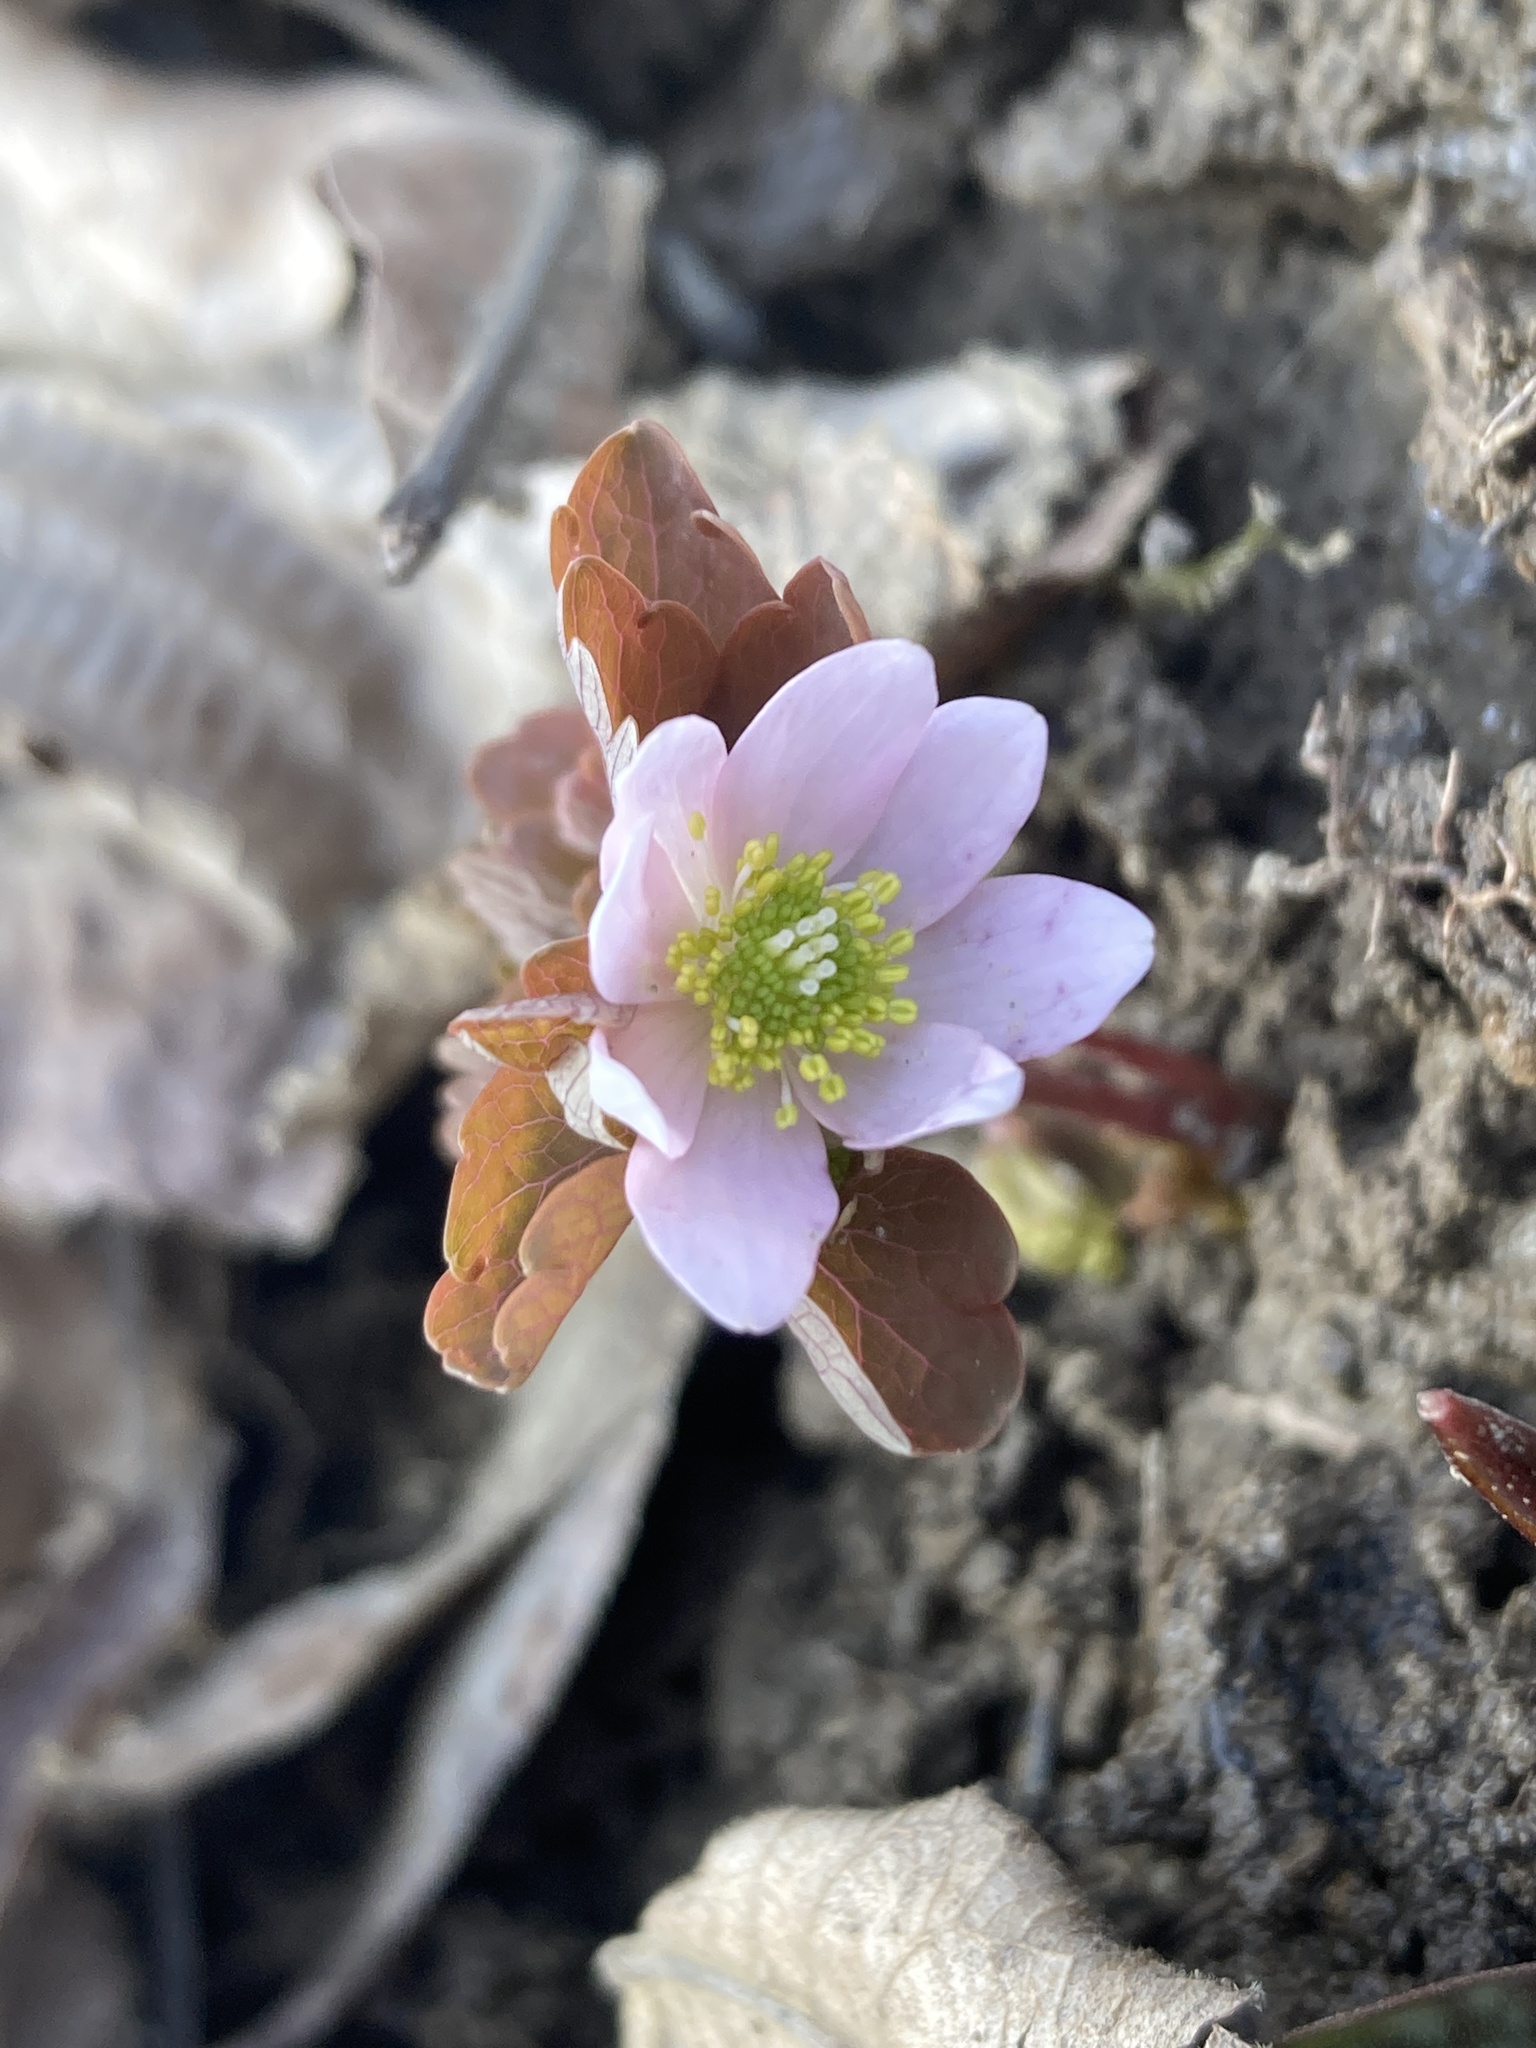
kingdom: Plantae
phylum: Tracheophyta
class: Magnoliopsida
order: Ranunculales
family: Ranunculaceae
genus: Thalictrum
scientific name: Thalictrum thalictroides
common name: Rue-anemone
